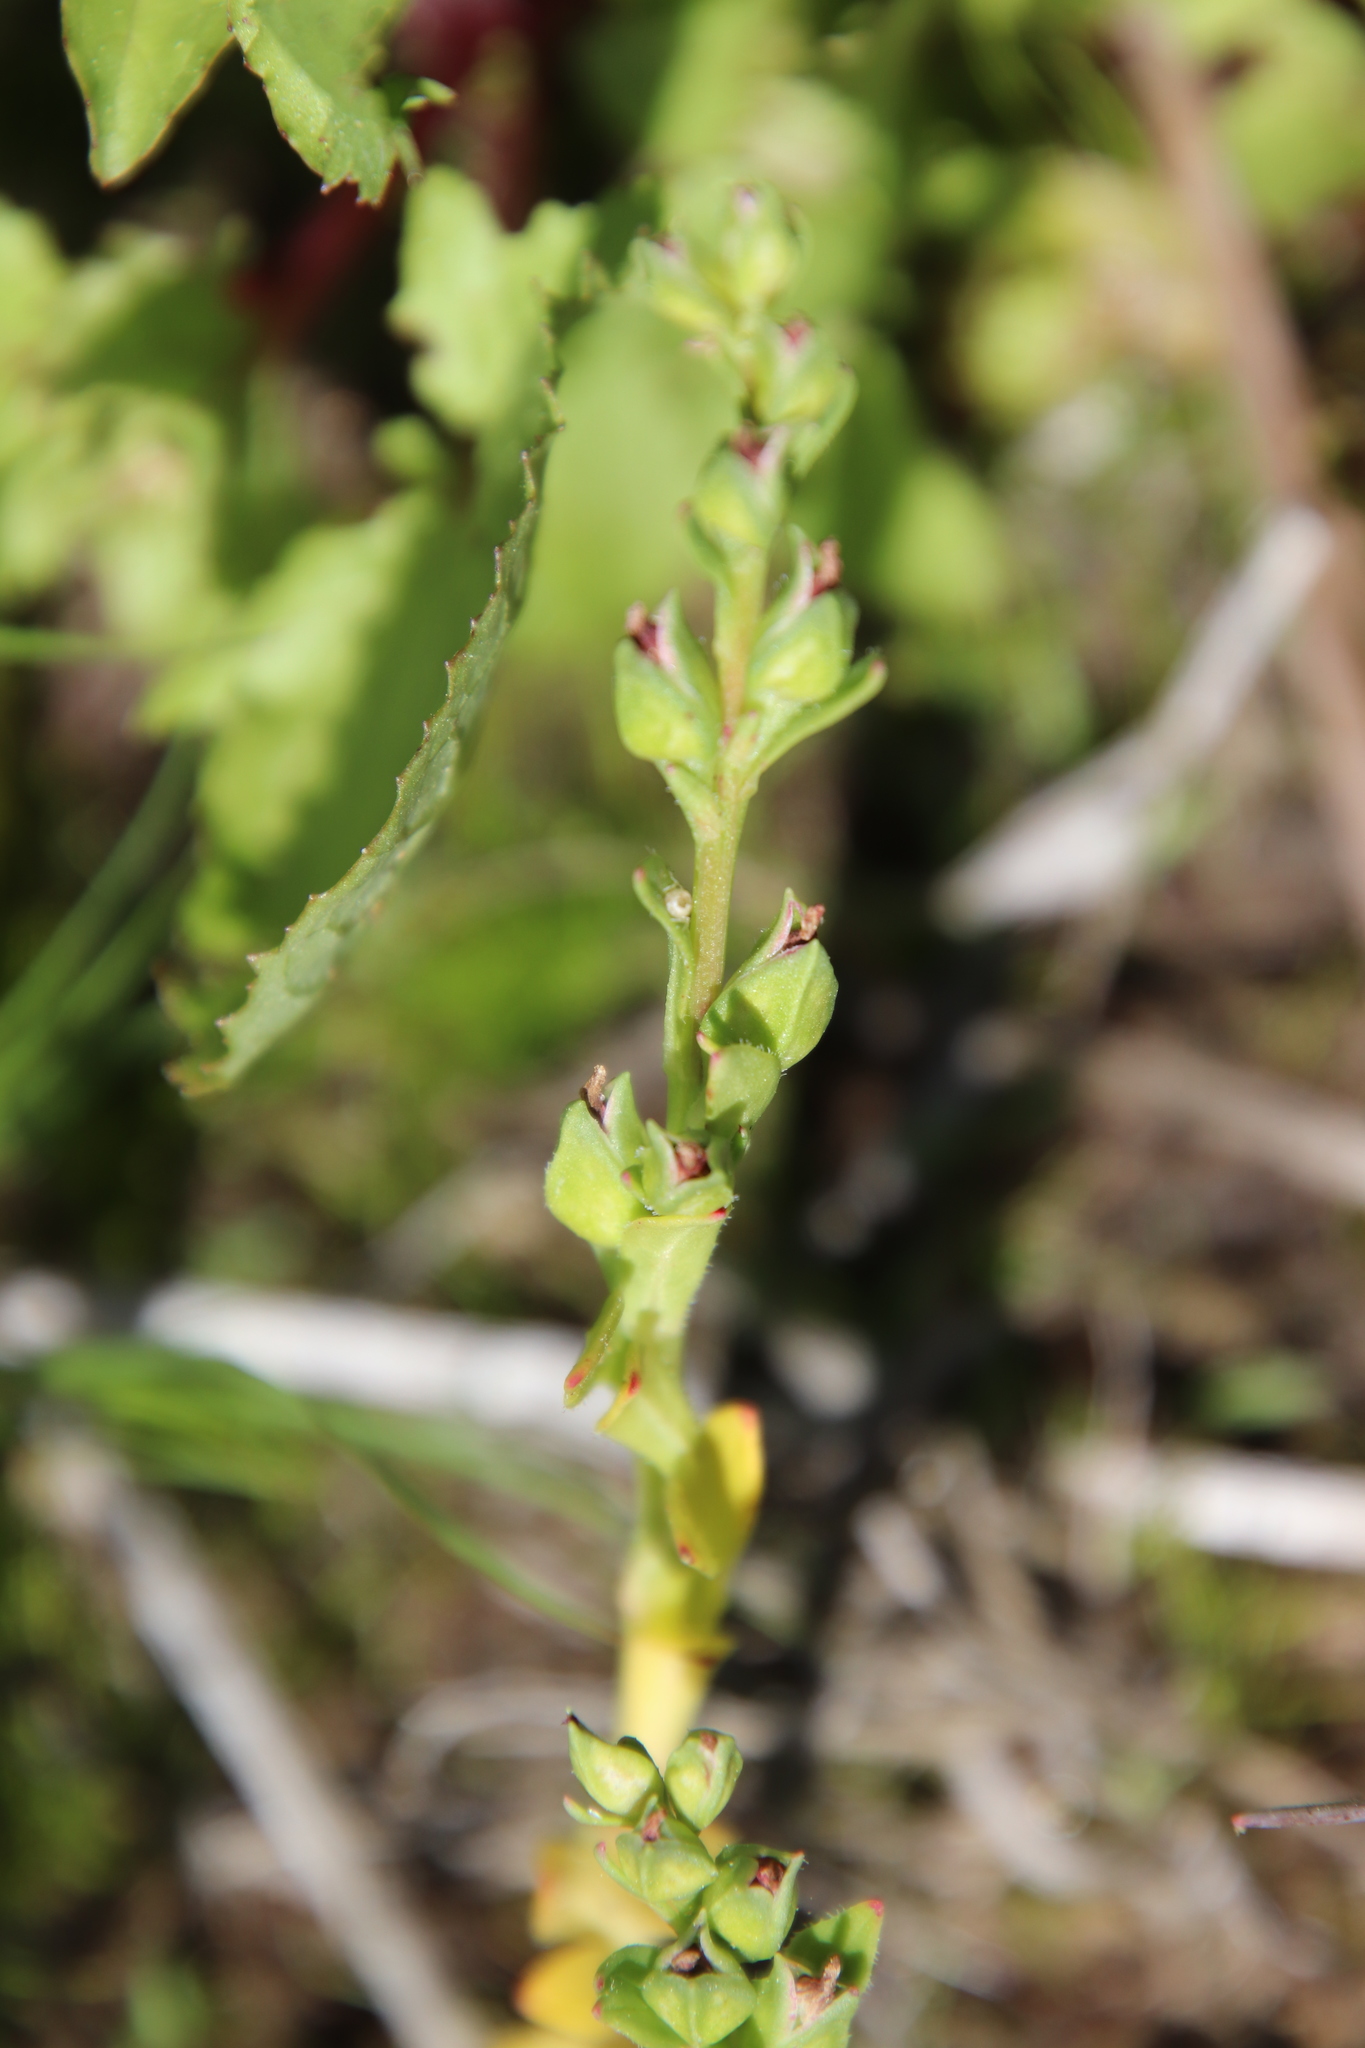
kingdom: Plantae
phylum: Tracheophyta
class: Magnoliopsida
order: Caryophyllales
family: Montiaceae
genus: Calandrinia
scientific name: Calandrinia menziesii
